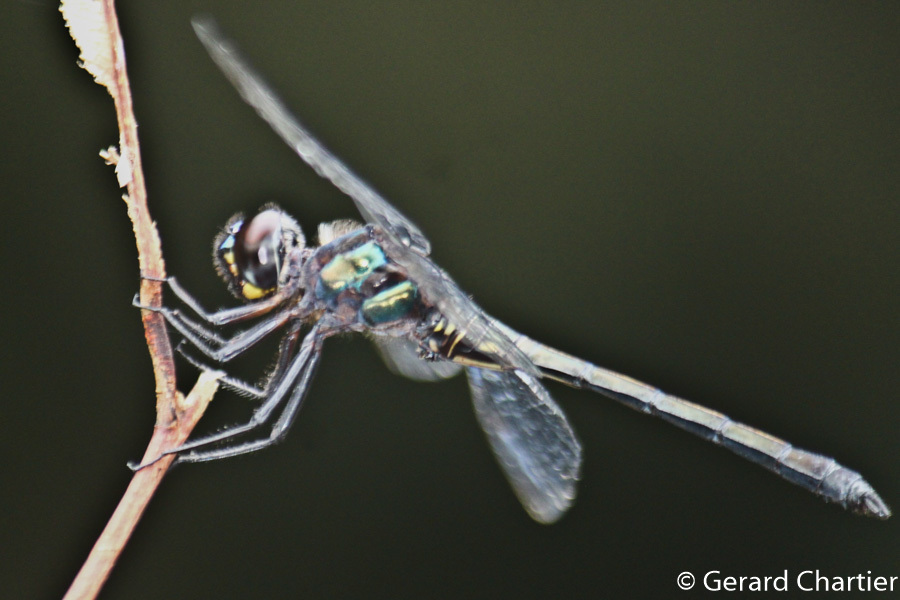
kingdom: Animalia
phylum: Arthropoda
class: Insecta
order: Odonata
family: Libellulidae
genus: Zygonyx
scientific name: Zygonyx iris
